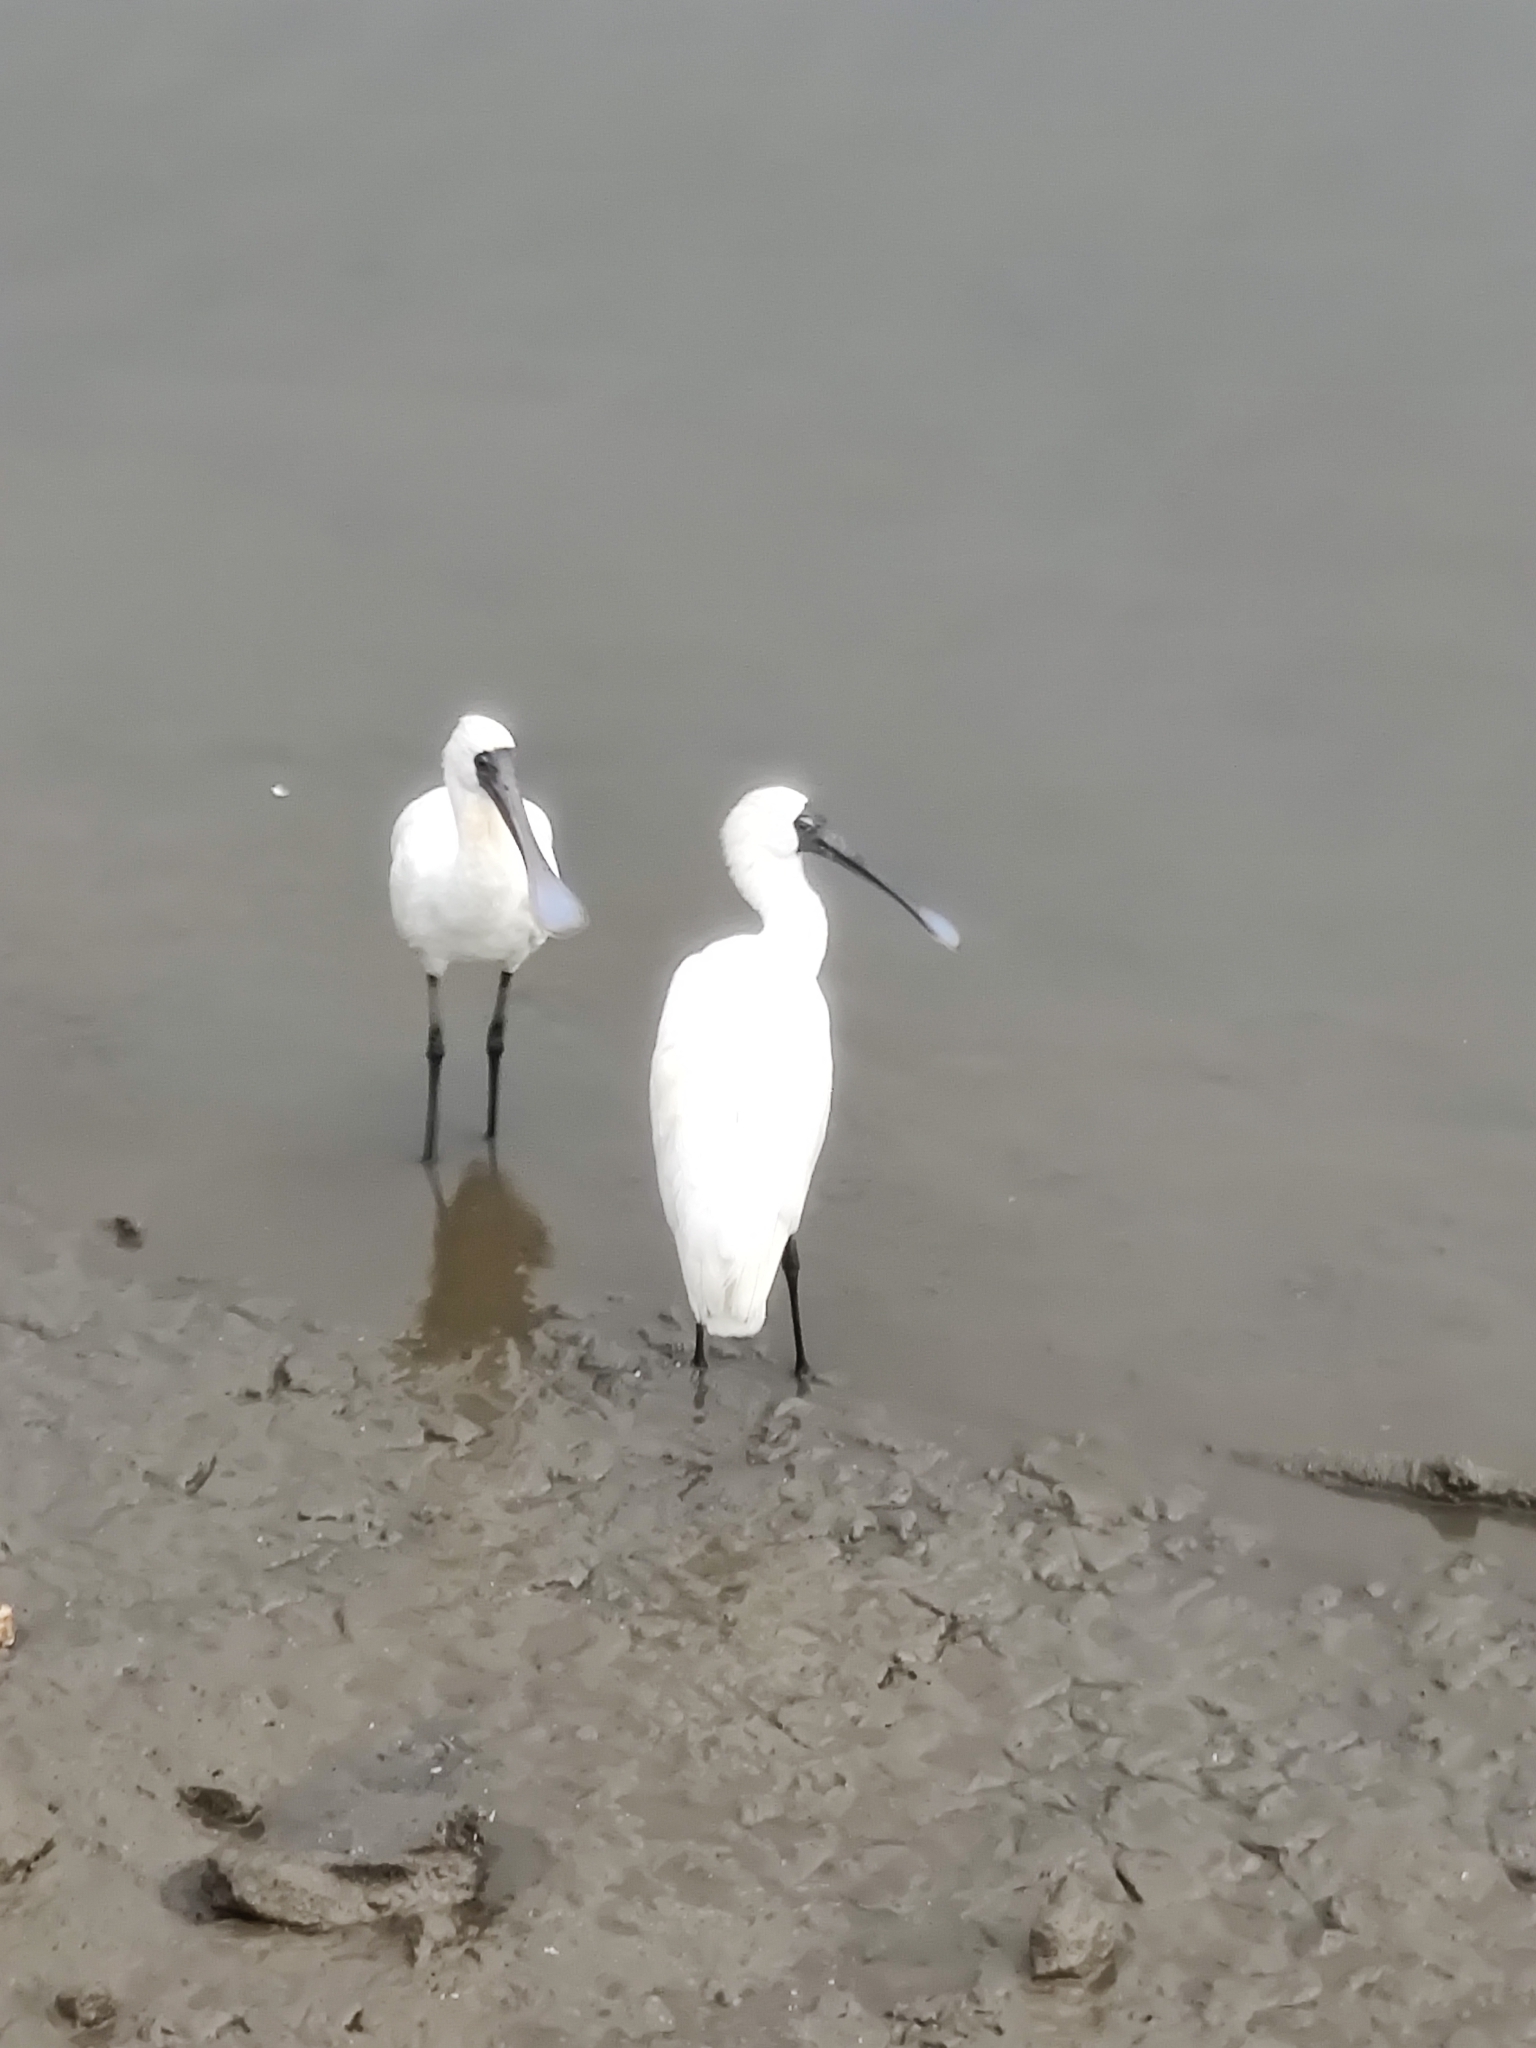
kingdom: Animalia
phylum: Chordata
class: Aves
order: Pelecaniformes
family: Threskiornithidae
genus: Platalea
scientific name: Platalea regia
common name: Royal spoonbill
